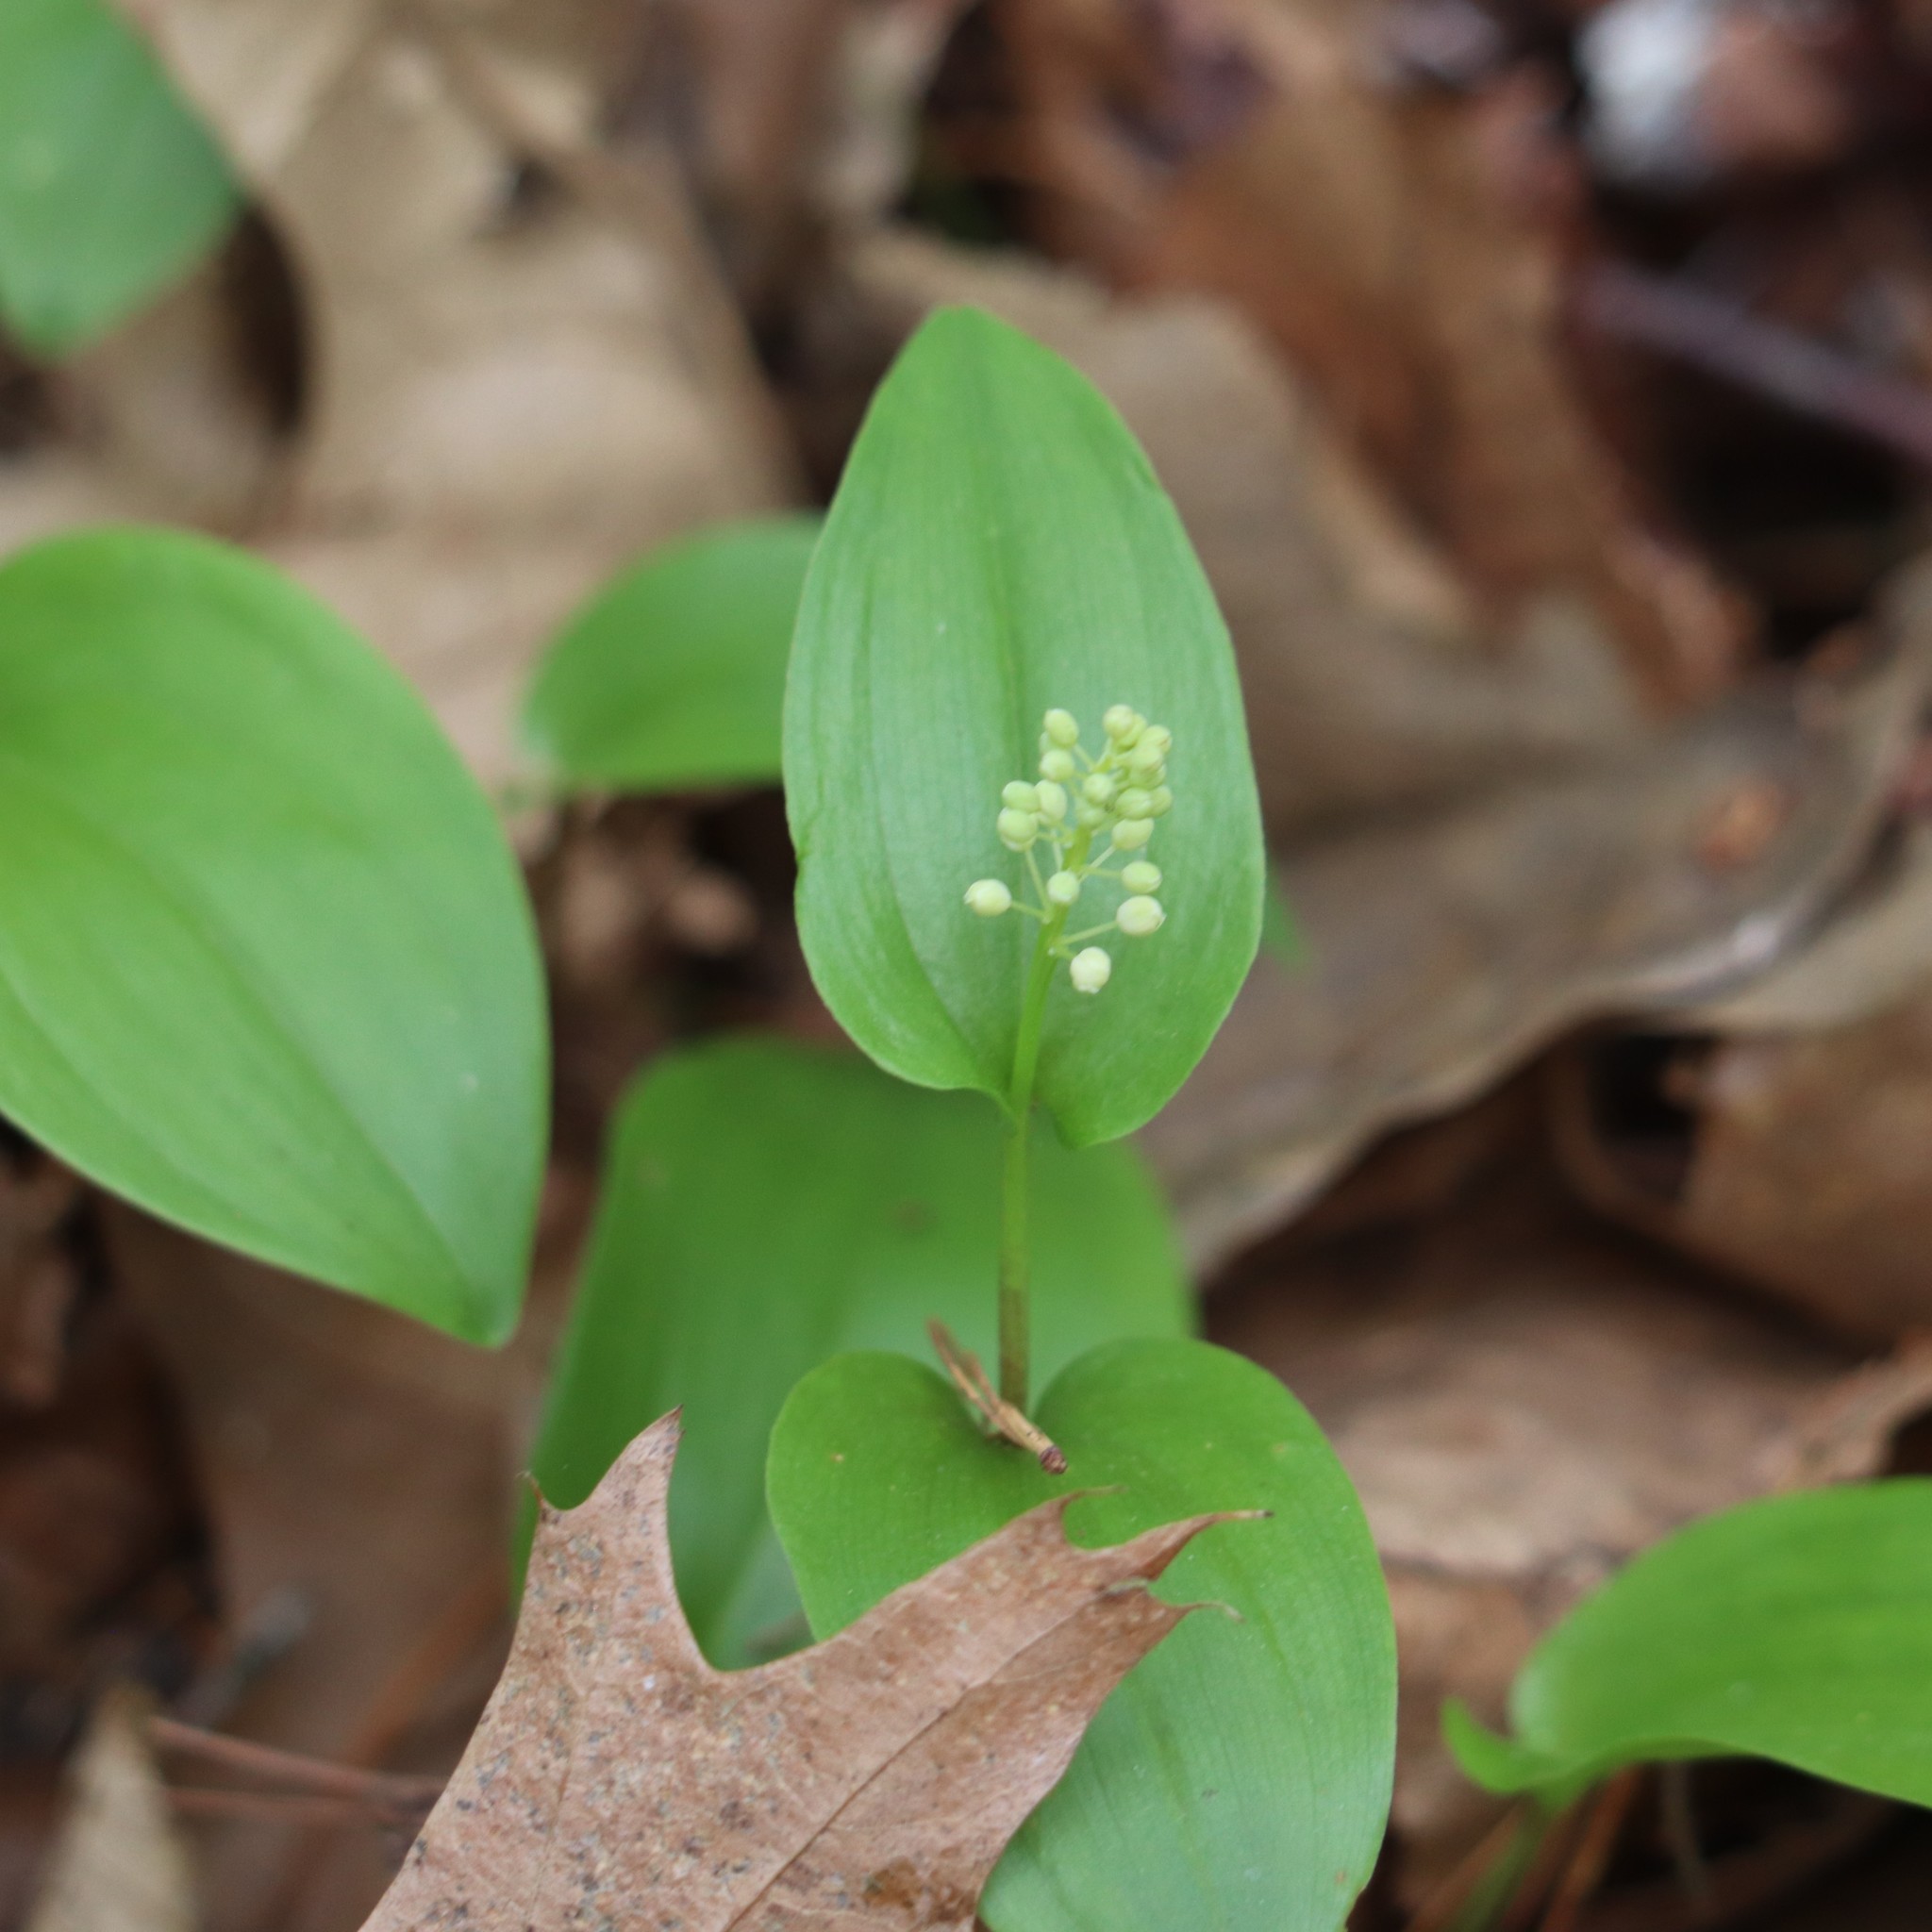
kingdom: Plantae
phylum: Tracheophyta
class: Liliopsida
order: Asparagales
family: Asparagaceae
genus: Maianthemum
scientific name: Maianthemum canadense
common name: False lily-of-the-valley
